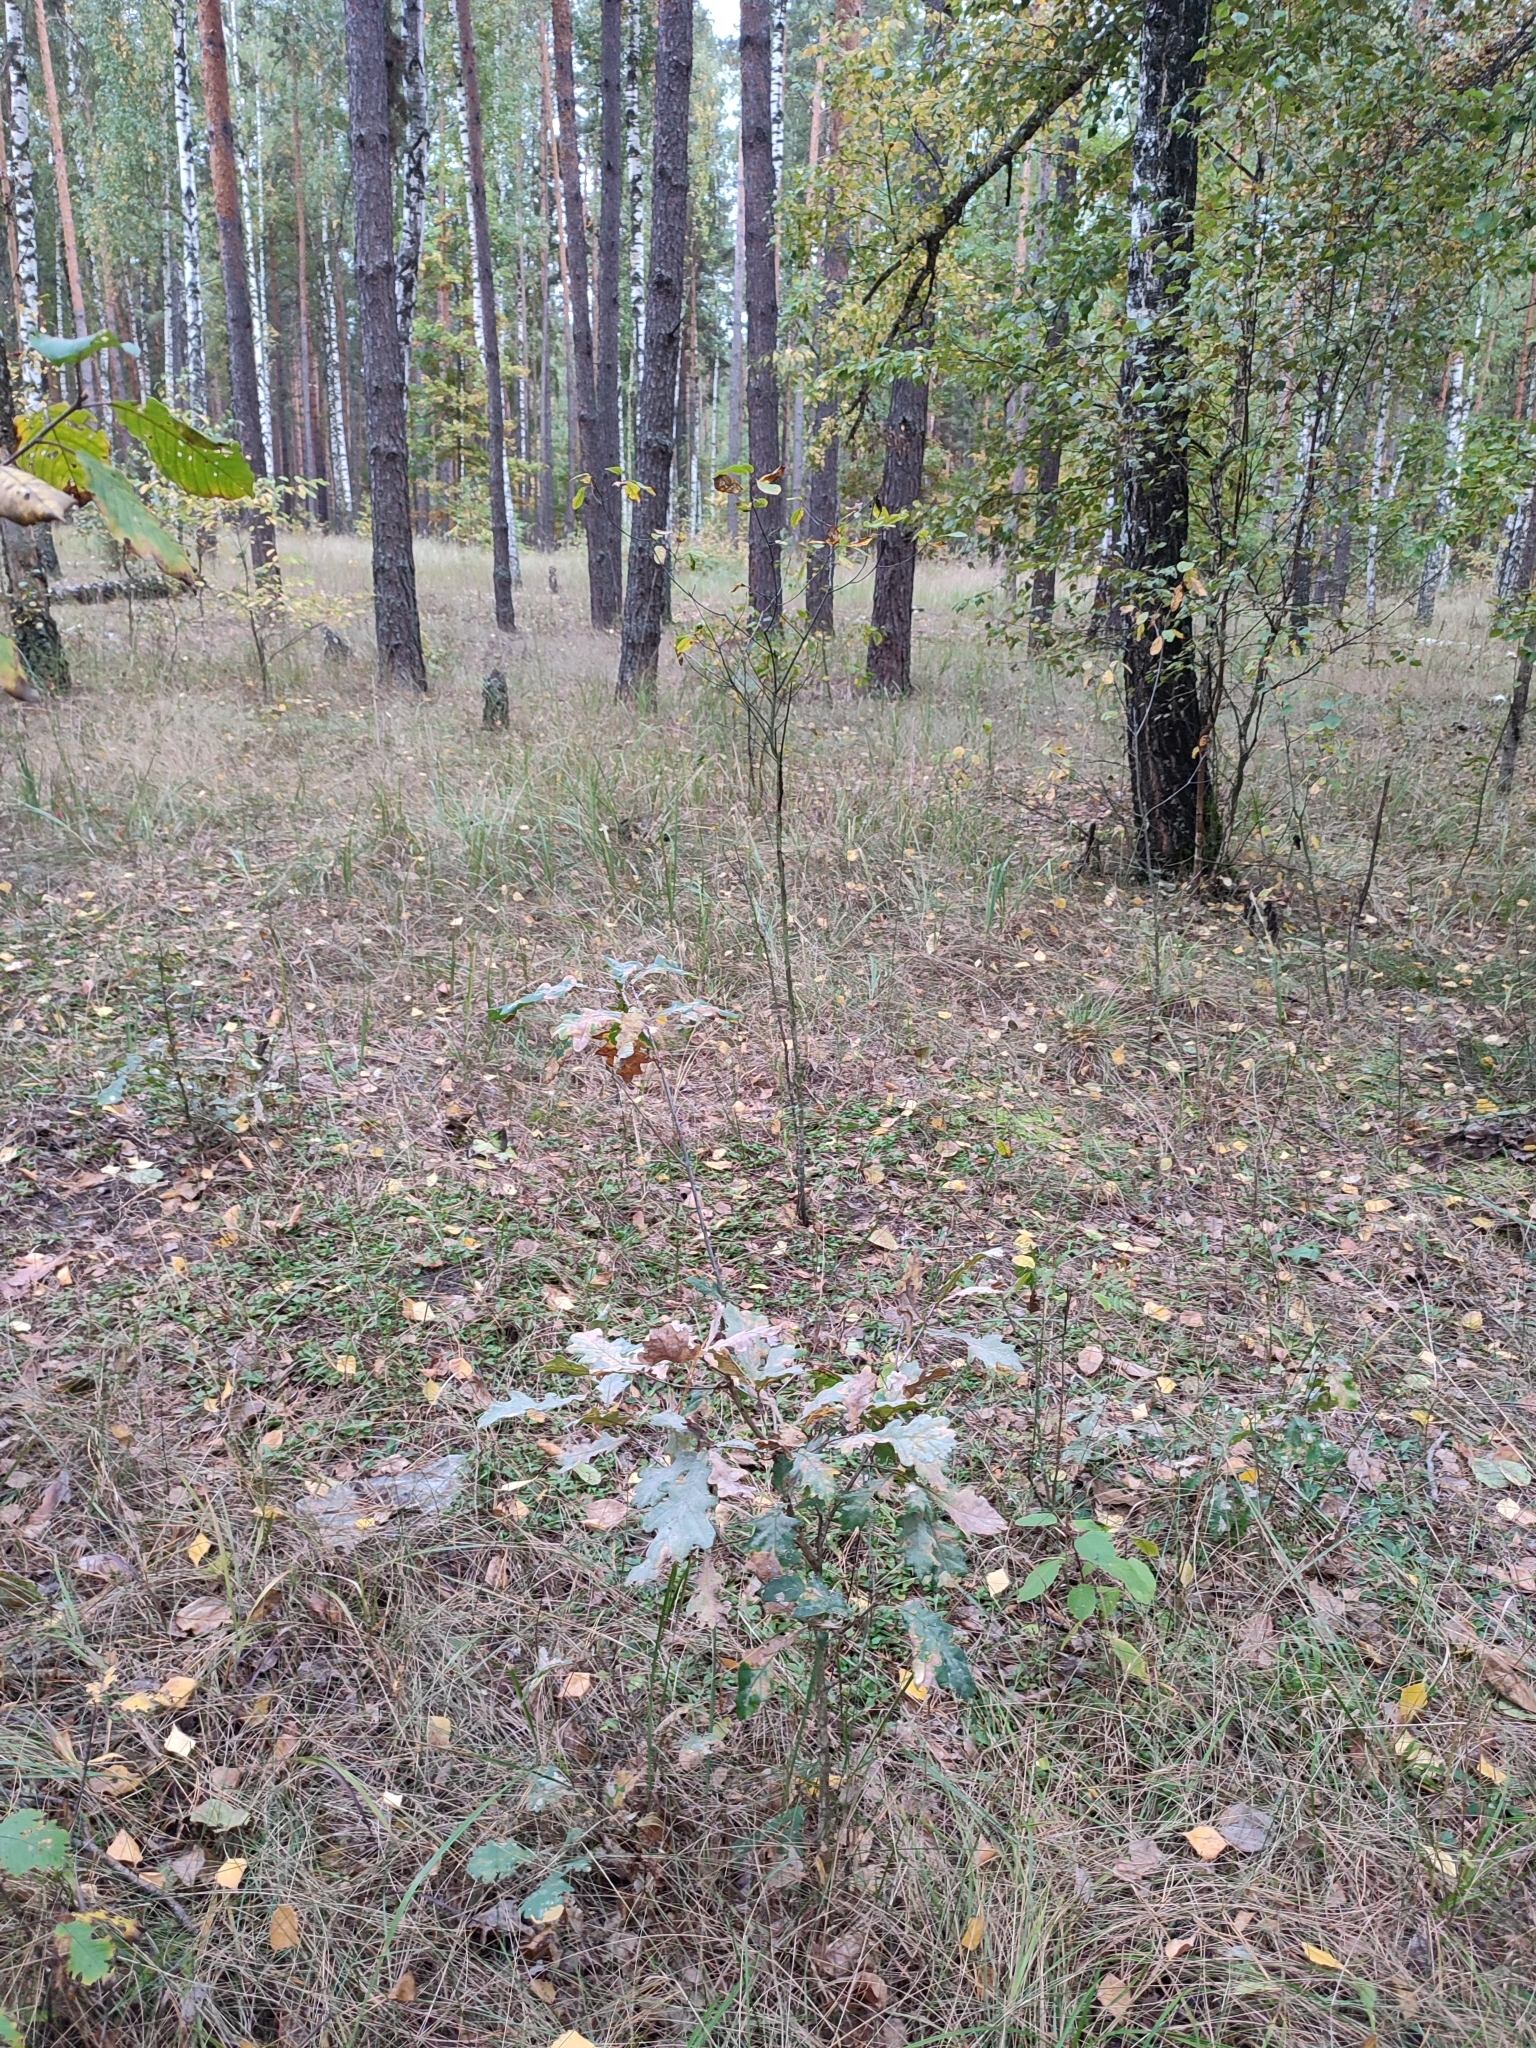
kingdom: Plantae
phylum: Tracheophyta
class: Magnoliopsida
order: Fagales
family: Fagaceae
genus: Quercus
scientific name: Quercus robur
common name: Pedunculate oak
